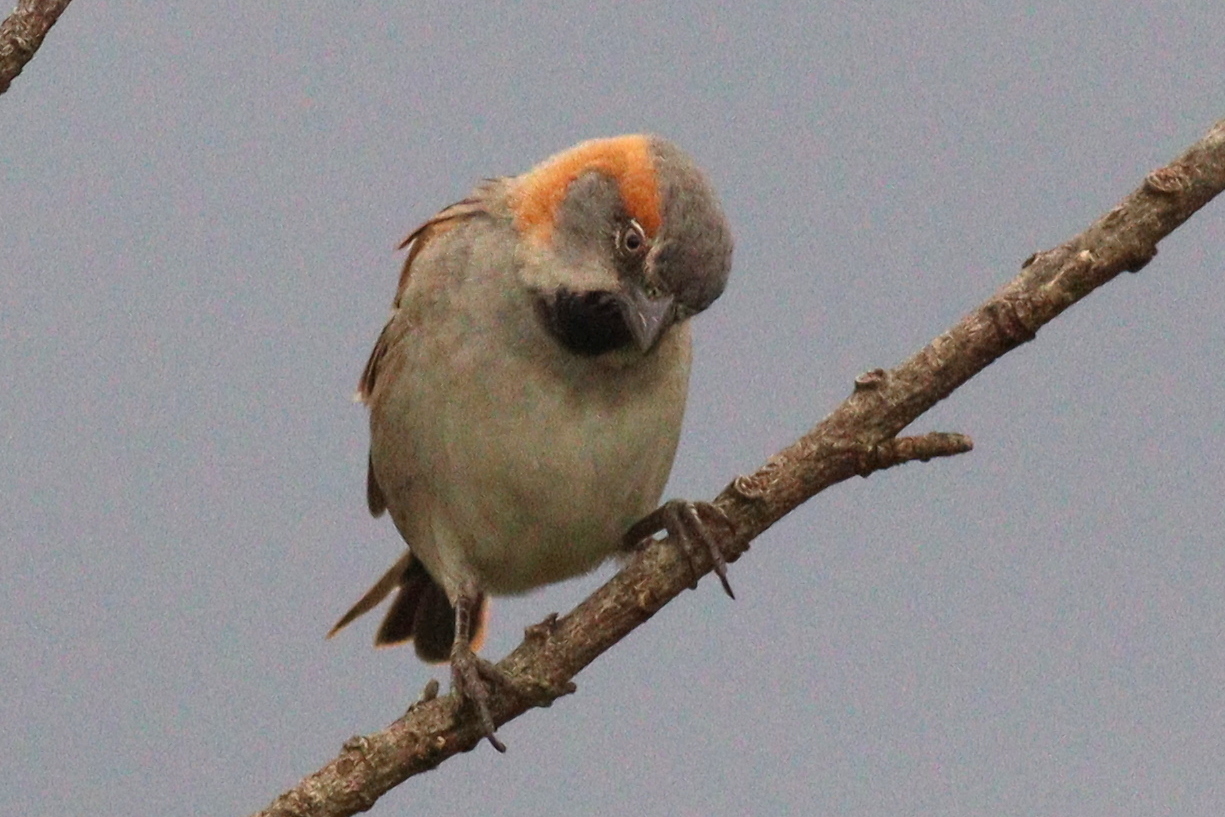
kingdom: Animalia
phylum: Chordata
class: Aves
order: Passeriformes
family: Passeridae
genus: Passer
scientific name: Passer rufocinctus
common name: Kenya sparrow
